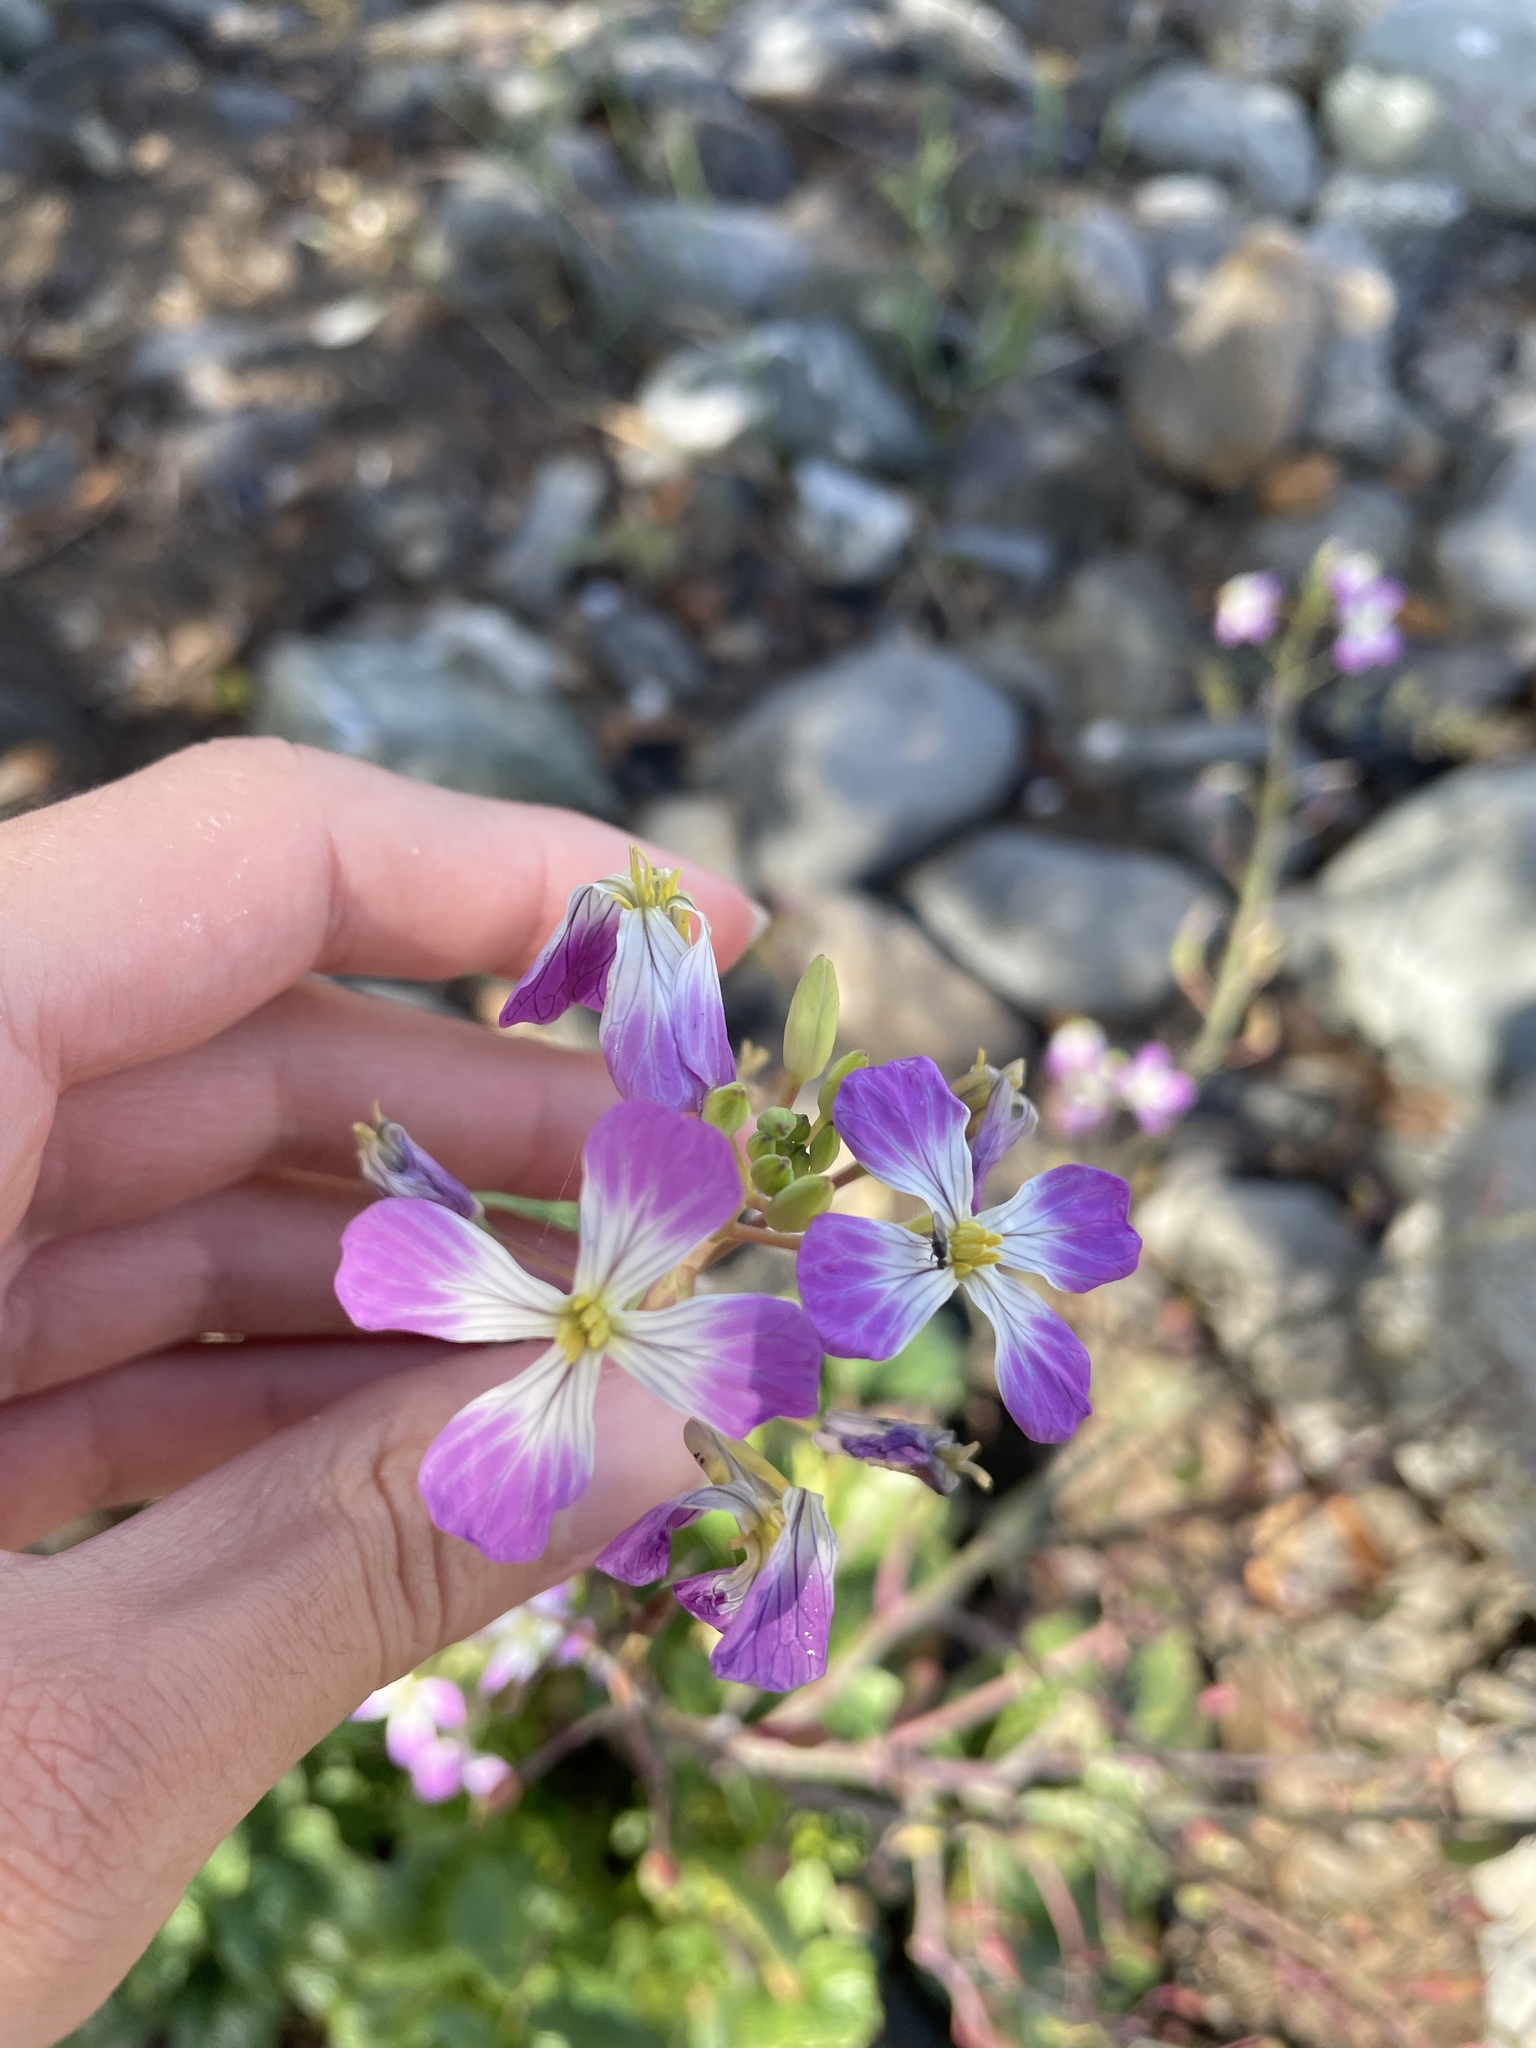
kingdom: Plantae
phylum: Tracheophyta
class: Magnoliopsida
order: Brassicales
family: Brassicaceae
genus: Raphanus
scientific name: Raphanus sativus
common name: Cultivated radish
